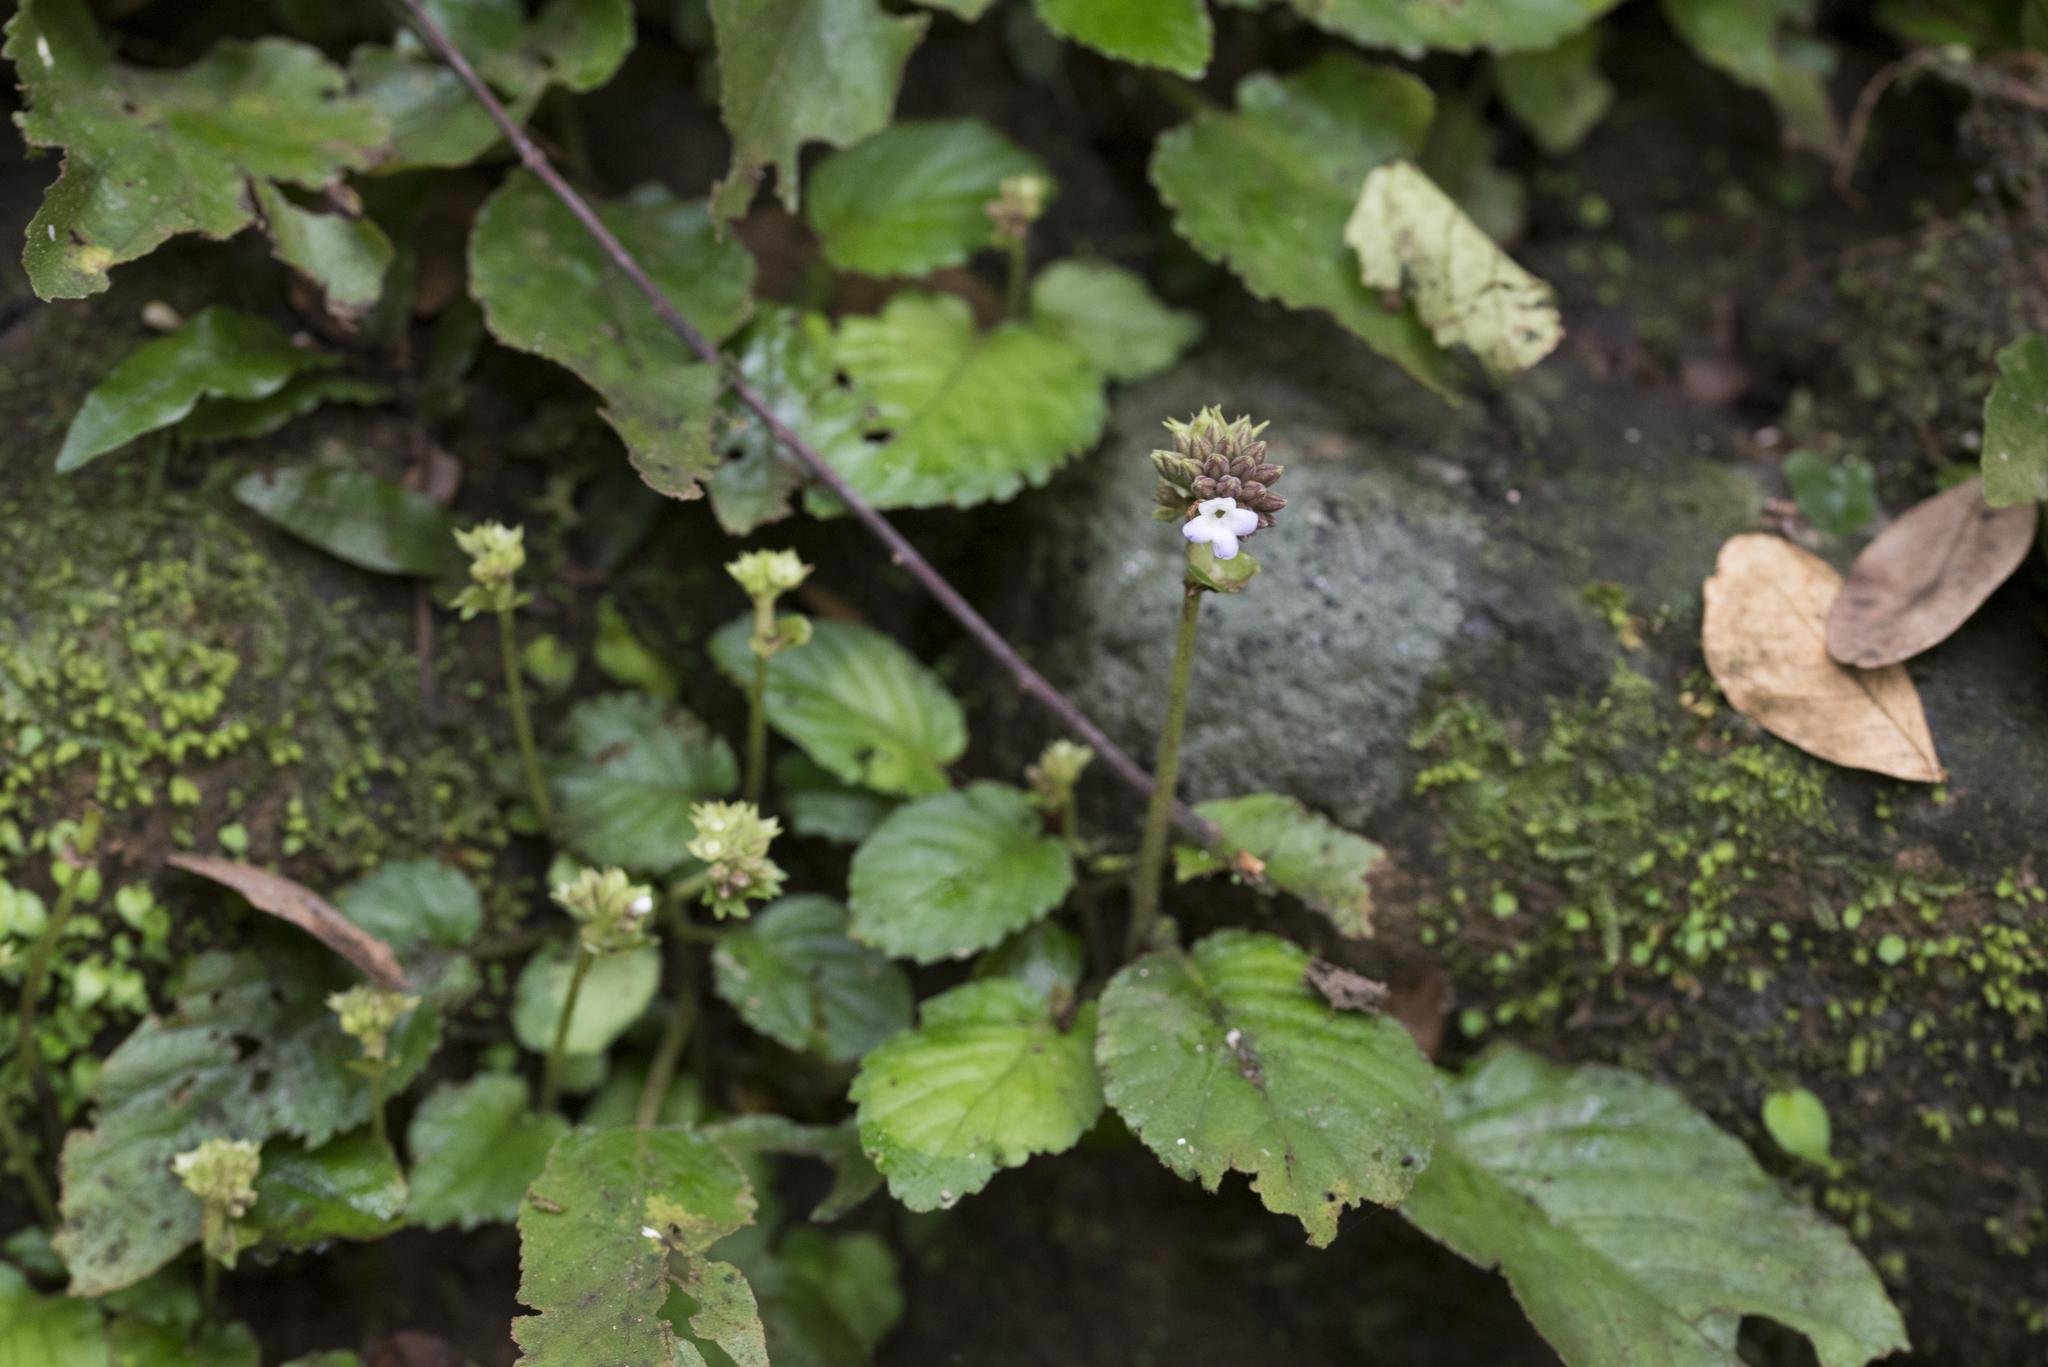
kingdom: Plantae
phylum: Tracheophyta
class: Magnoliopsida
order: Lamiales
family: Gesneriaceae
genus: Epithema
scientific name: Epithema benthamii
